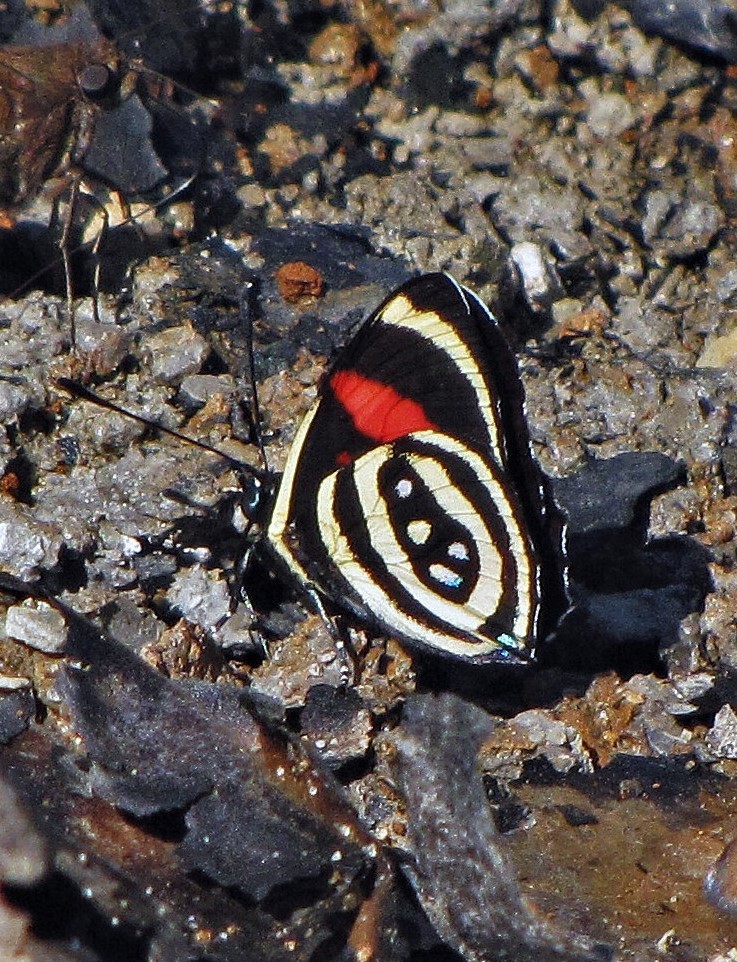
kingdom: Animalia
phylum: Arthropoda
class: Insecta
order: Lepidoptera
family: Nymphalidae
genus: Catagramma
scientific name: Catagramma Callicore hydaspes
